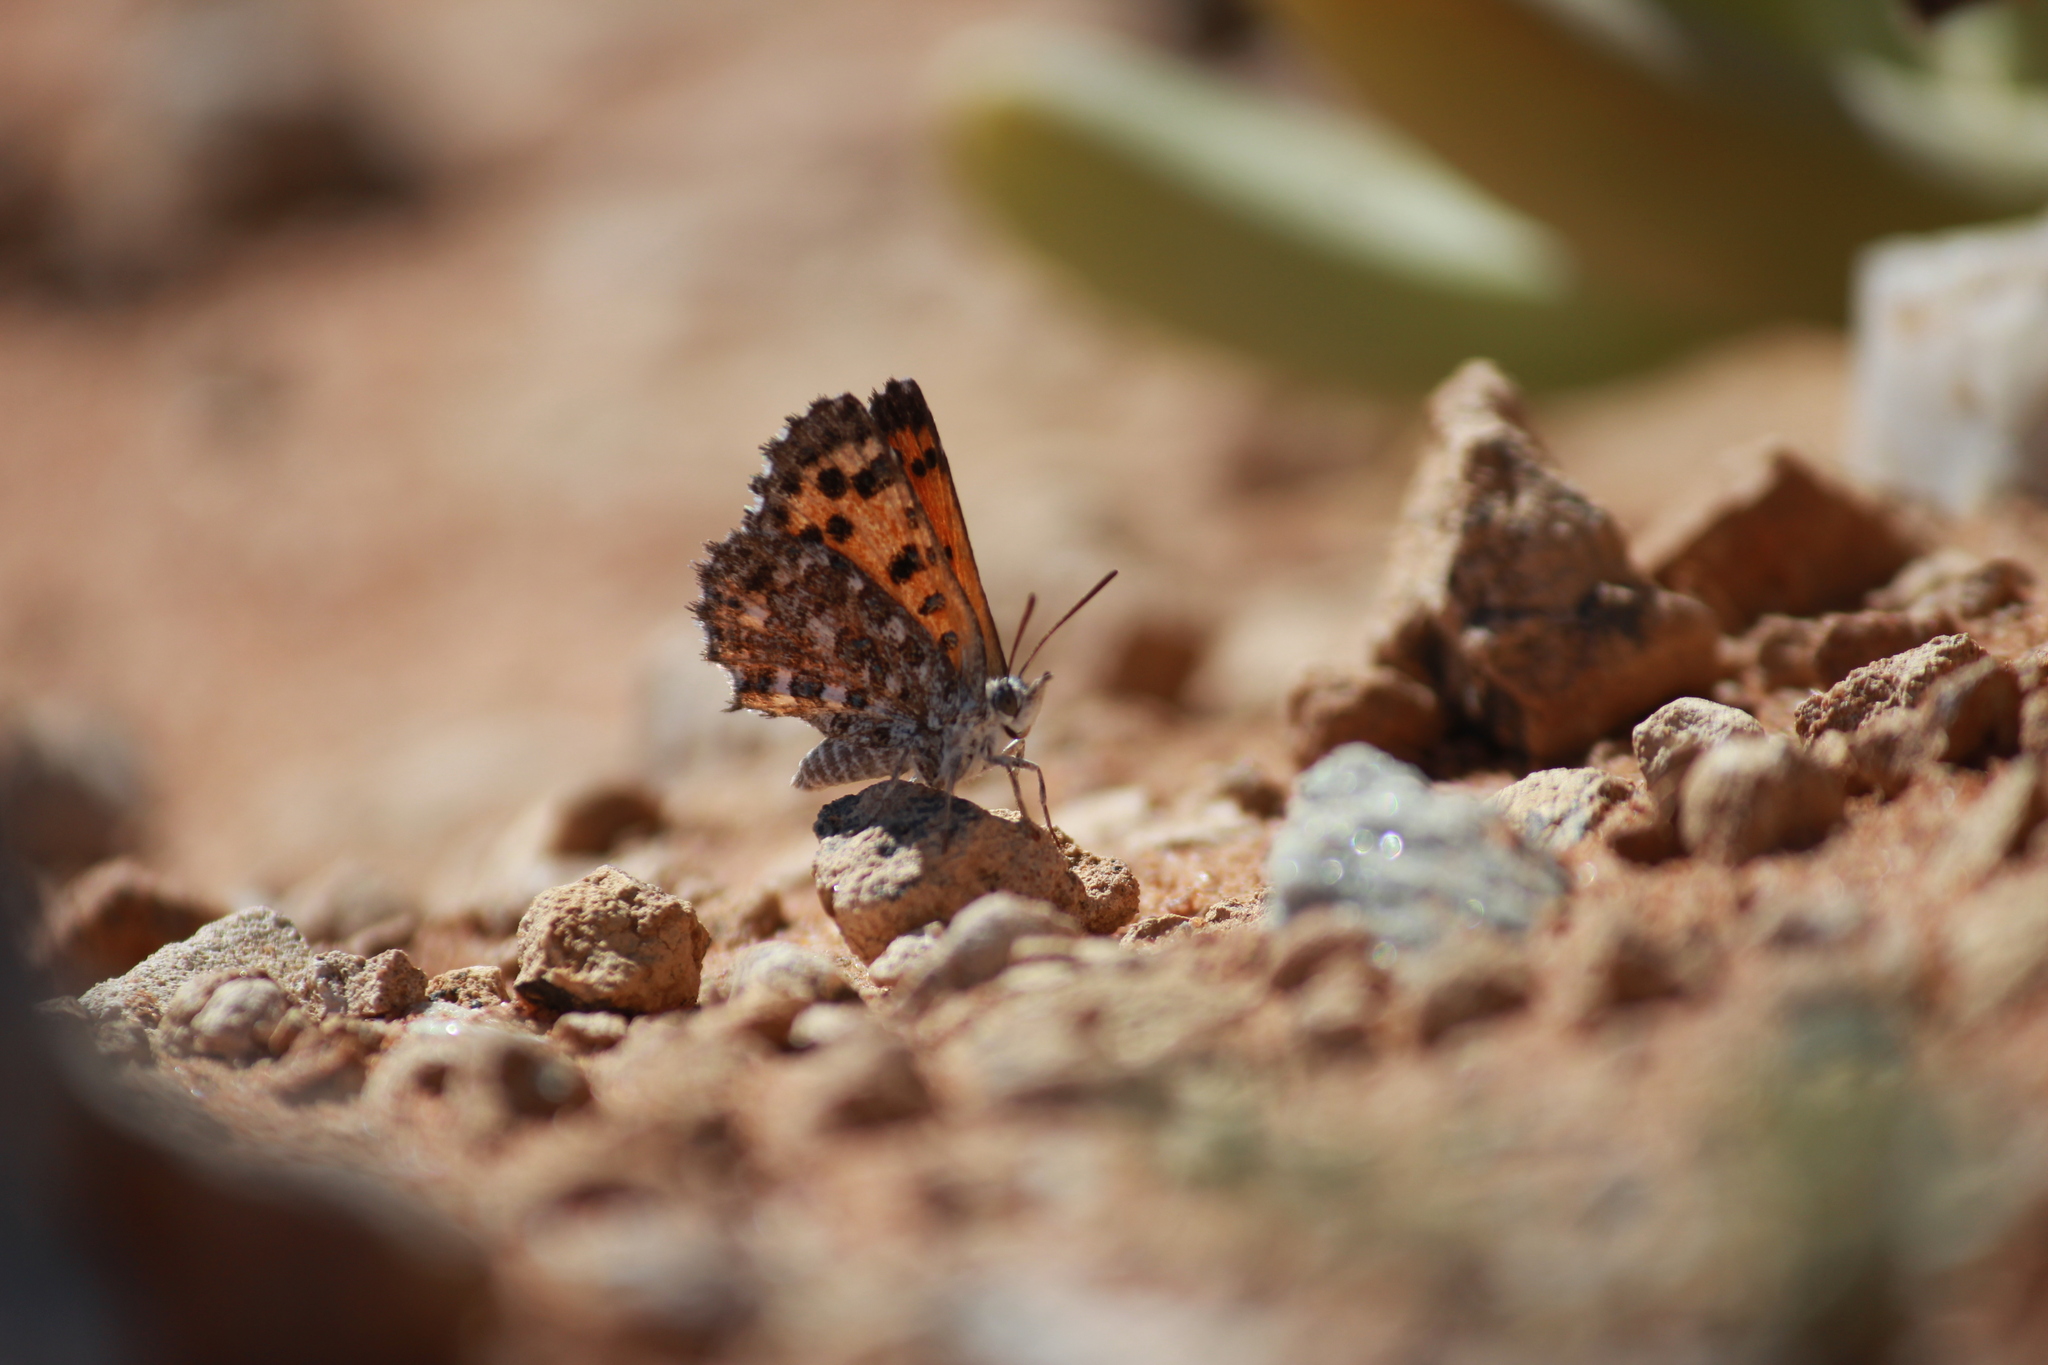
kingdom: Animalia
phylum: Arthropoda
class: Insecta
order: Lepidoptera
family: Lycaenidae
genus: Zeritis
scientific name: Zeritis chrysantas
